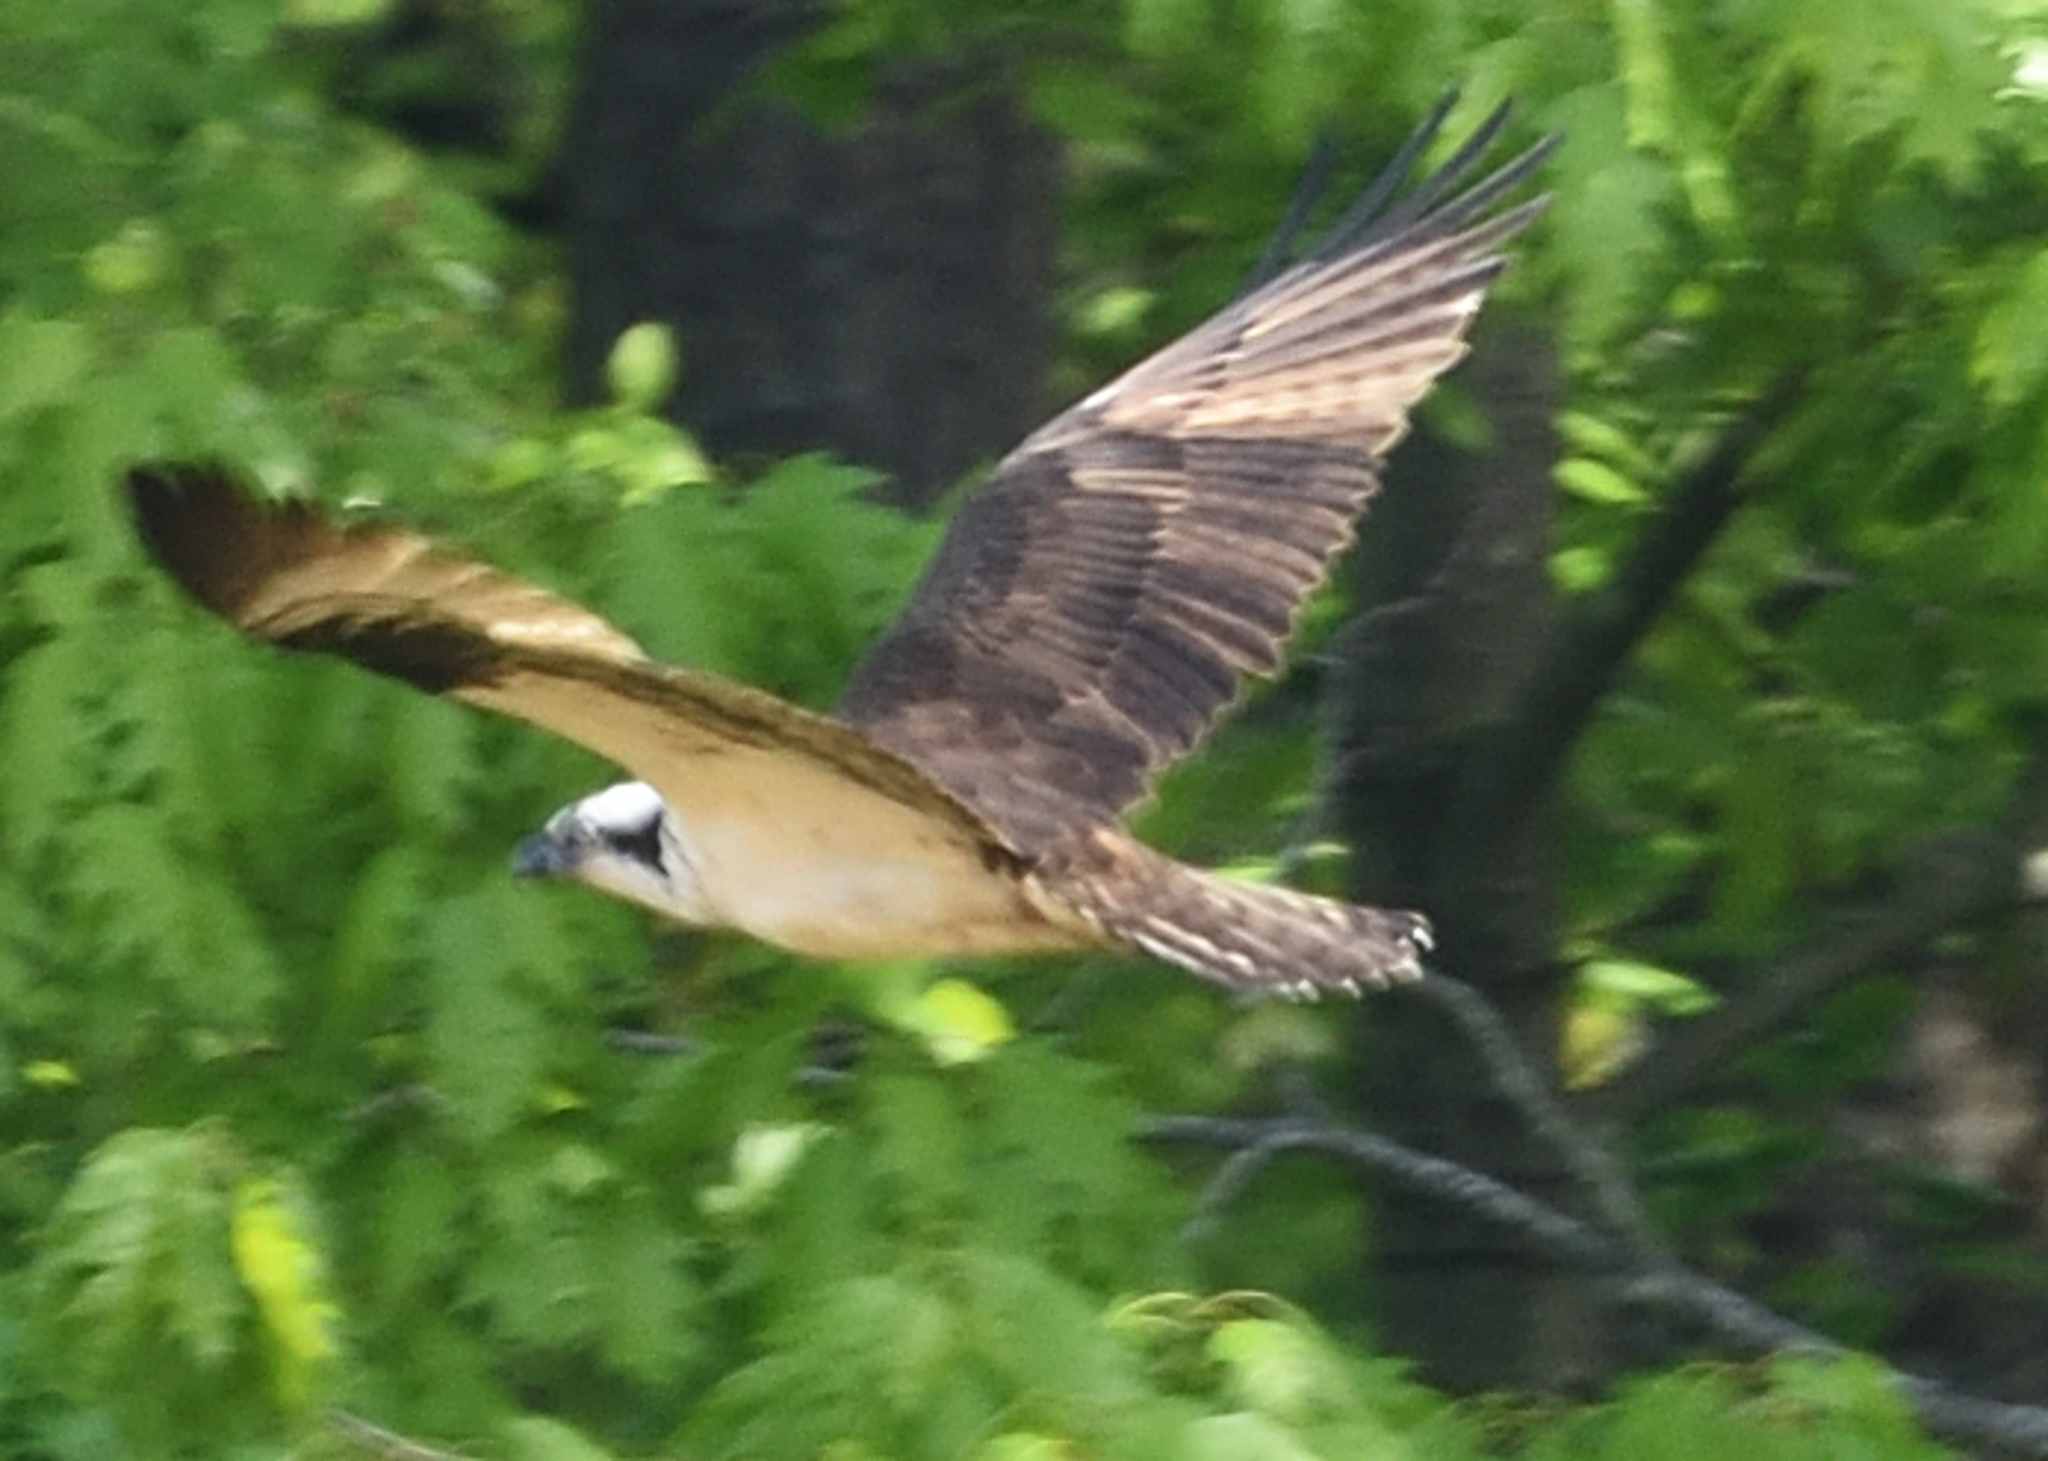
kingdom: Animalia
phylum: Chordata
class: Aves
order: Accipitriformes
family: Pandionidae
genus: Pandion
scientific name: Pandion haliaetus
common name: Osprey
